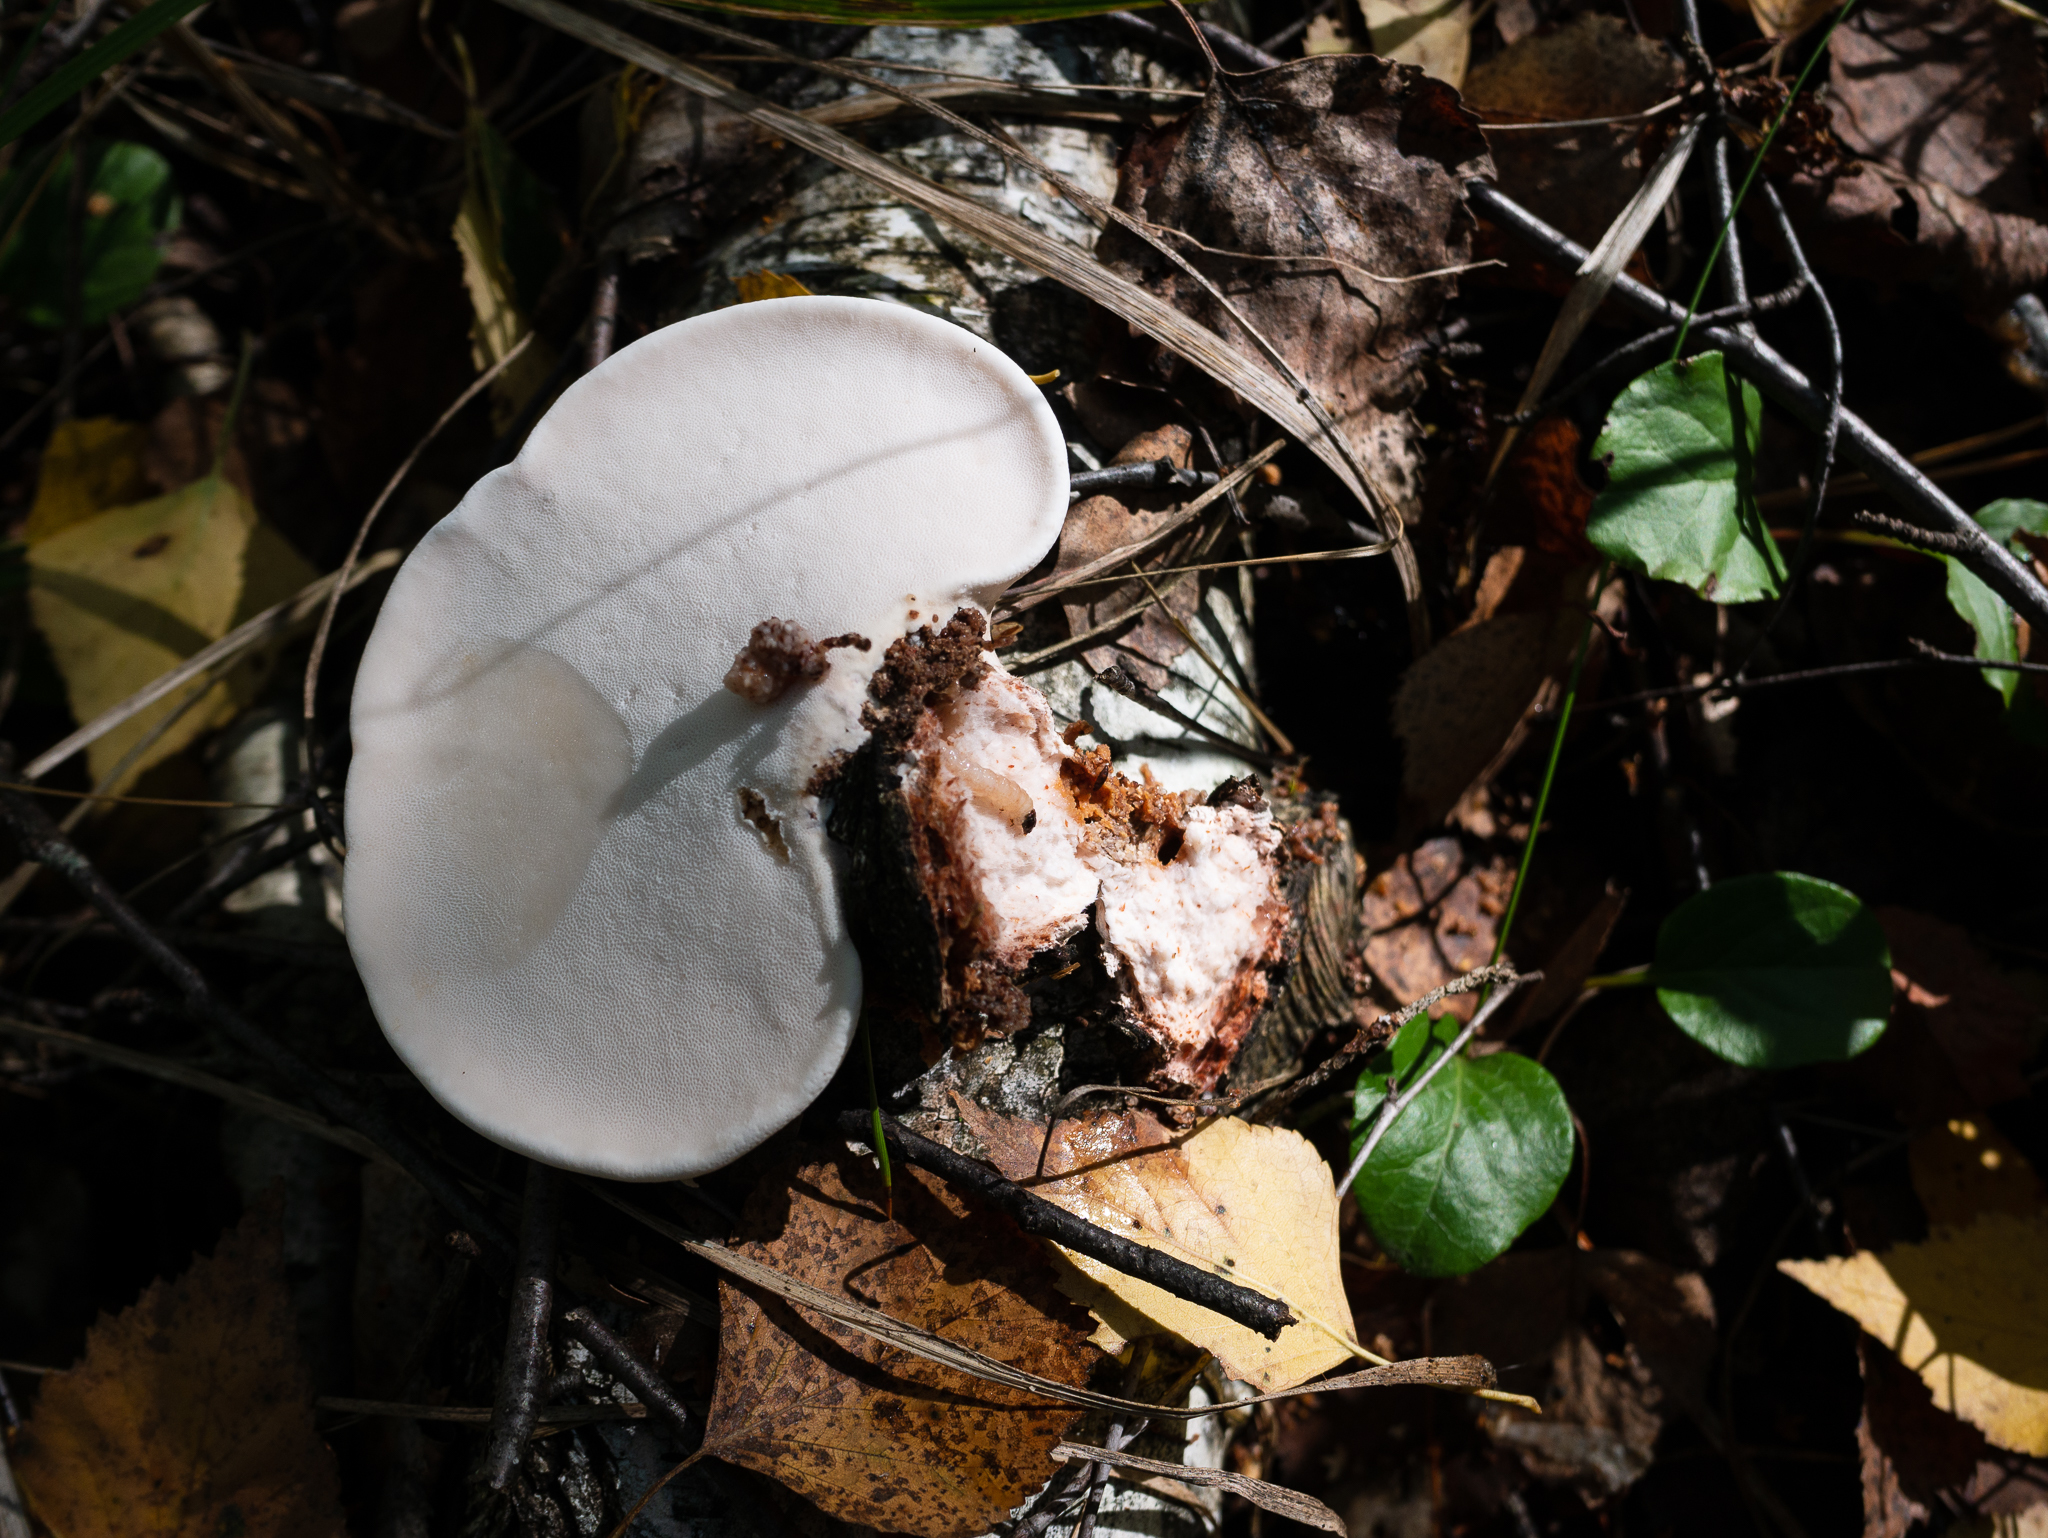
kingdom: Fungi
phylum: Basidiomycota
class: Agaricomycetes
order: Polyporales
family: Fomitopsidaceae
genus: Fomitopsis
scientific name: Fomitopsis betulina
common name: Birch polypore
